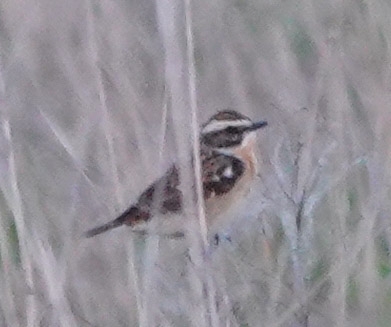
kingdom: Animalia
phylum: Chordata
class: Aves
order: Passeriformes
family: Muscicapidae
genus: Saxicola
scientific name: Saxicola rubetra
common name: Whinchat
